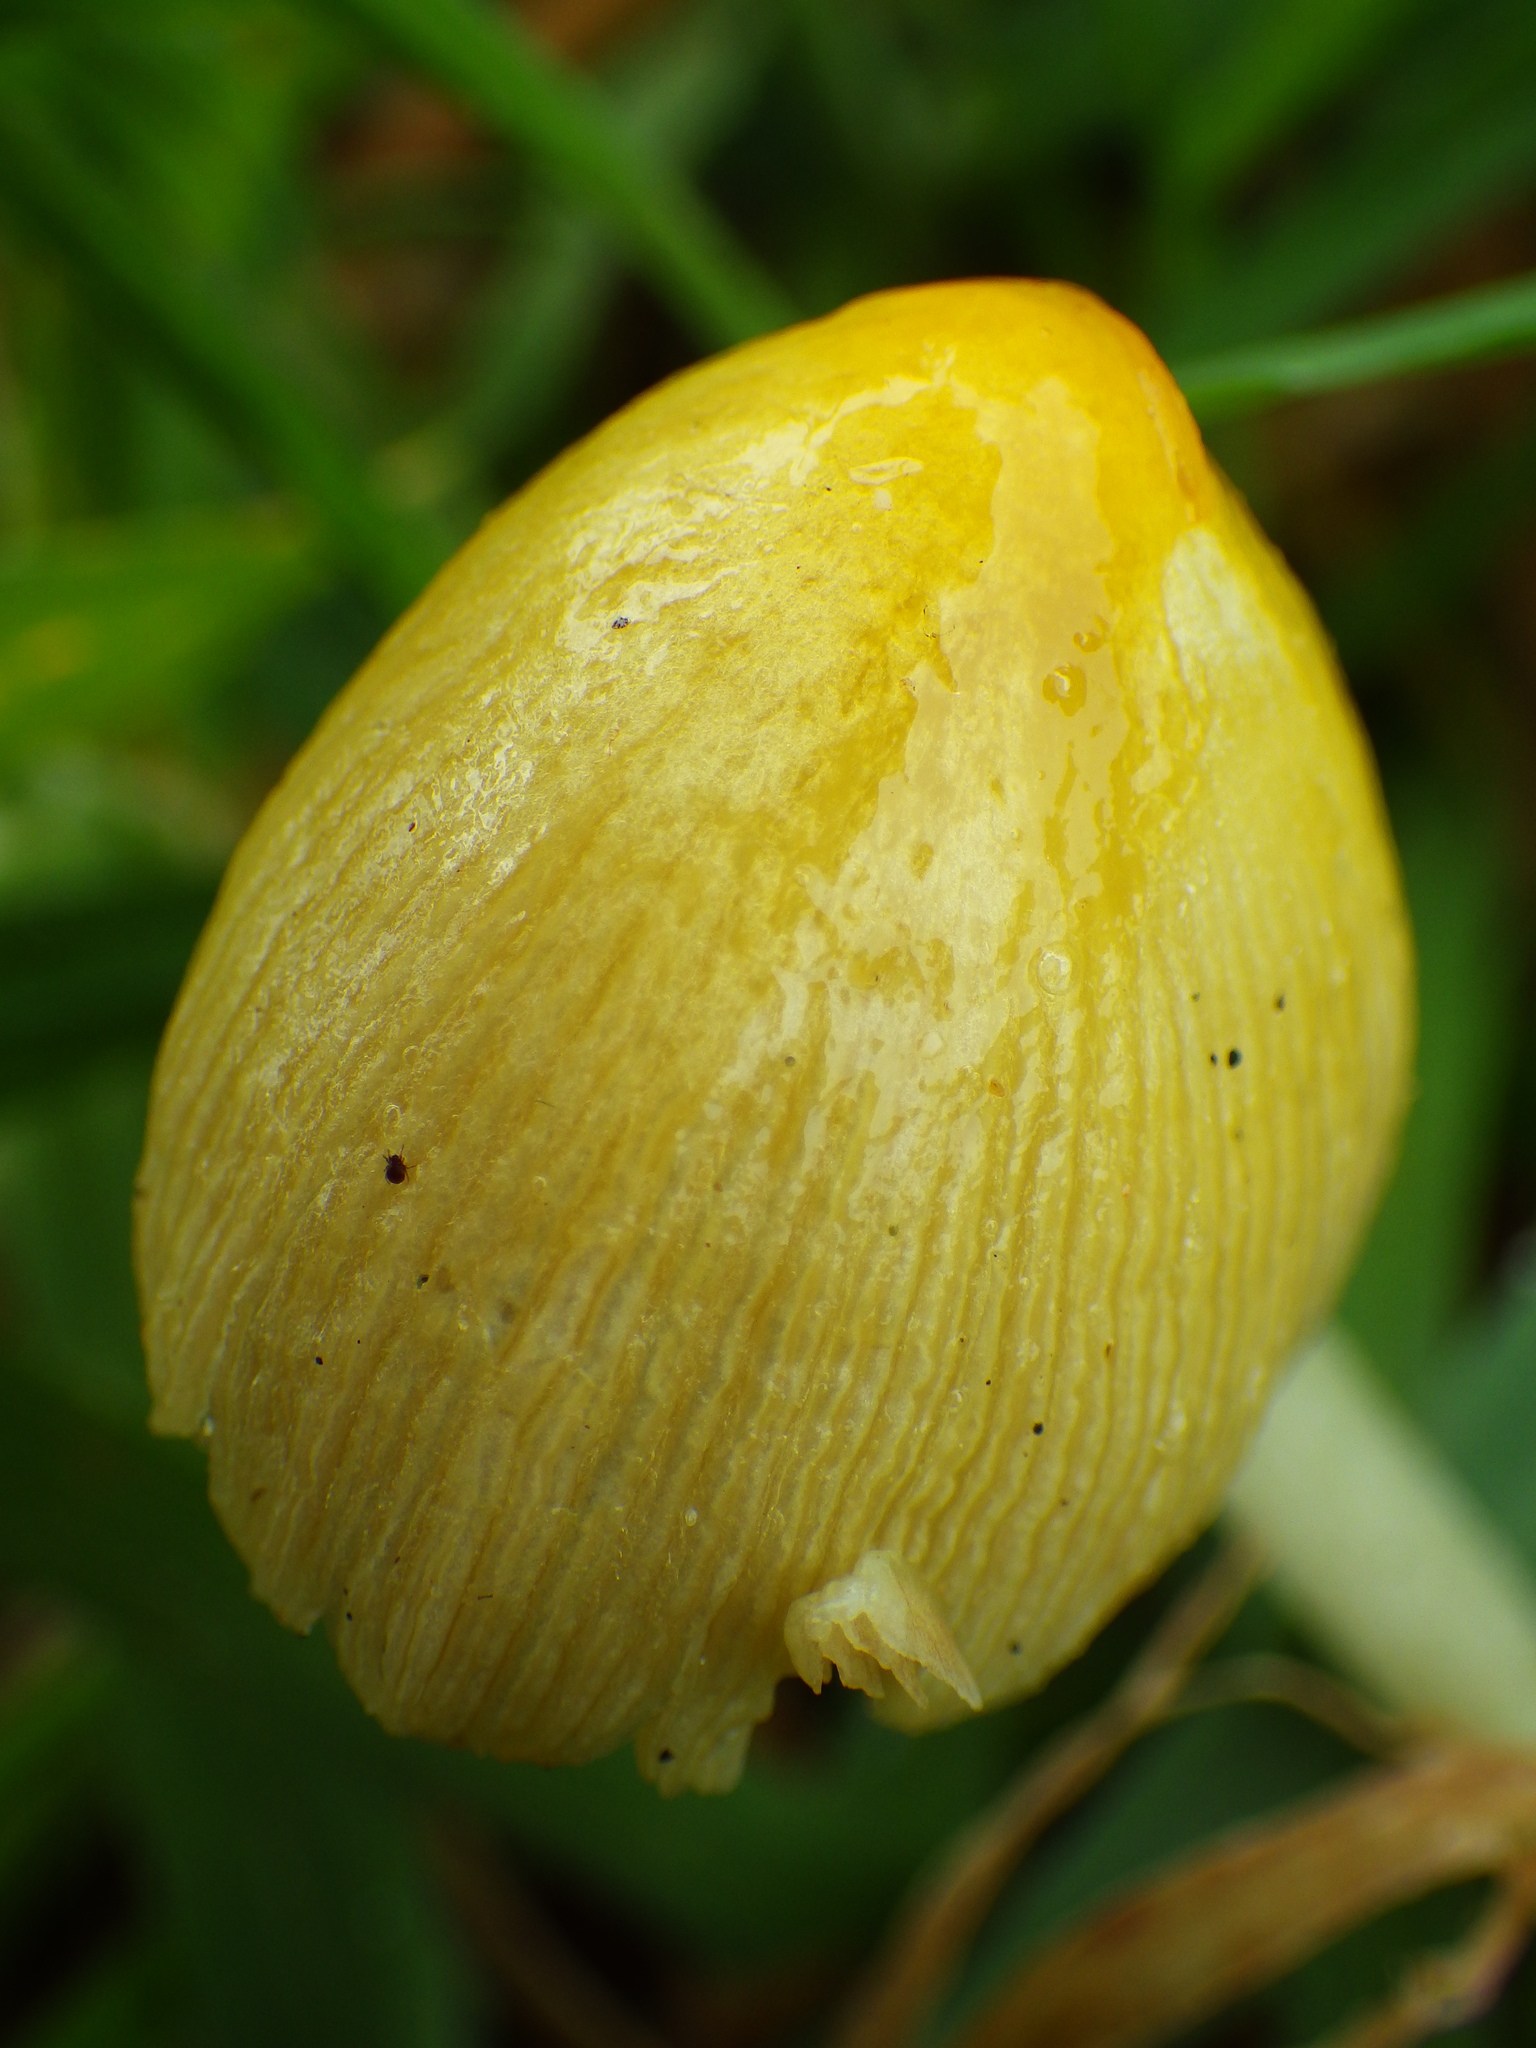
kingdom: Fungi
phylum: Basidiomycota
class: Agaricomycetes
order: Agaricales
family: Bolbitiaceae
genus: Bolbitius
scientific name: Bolbitius titubans
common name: Yellow fieldcap
